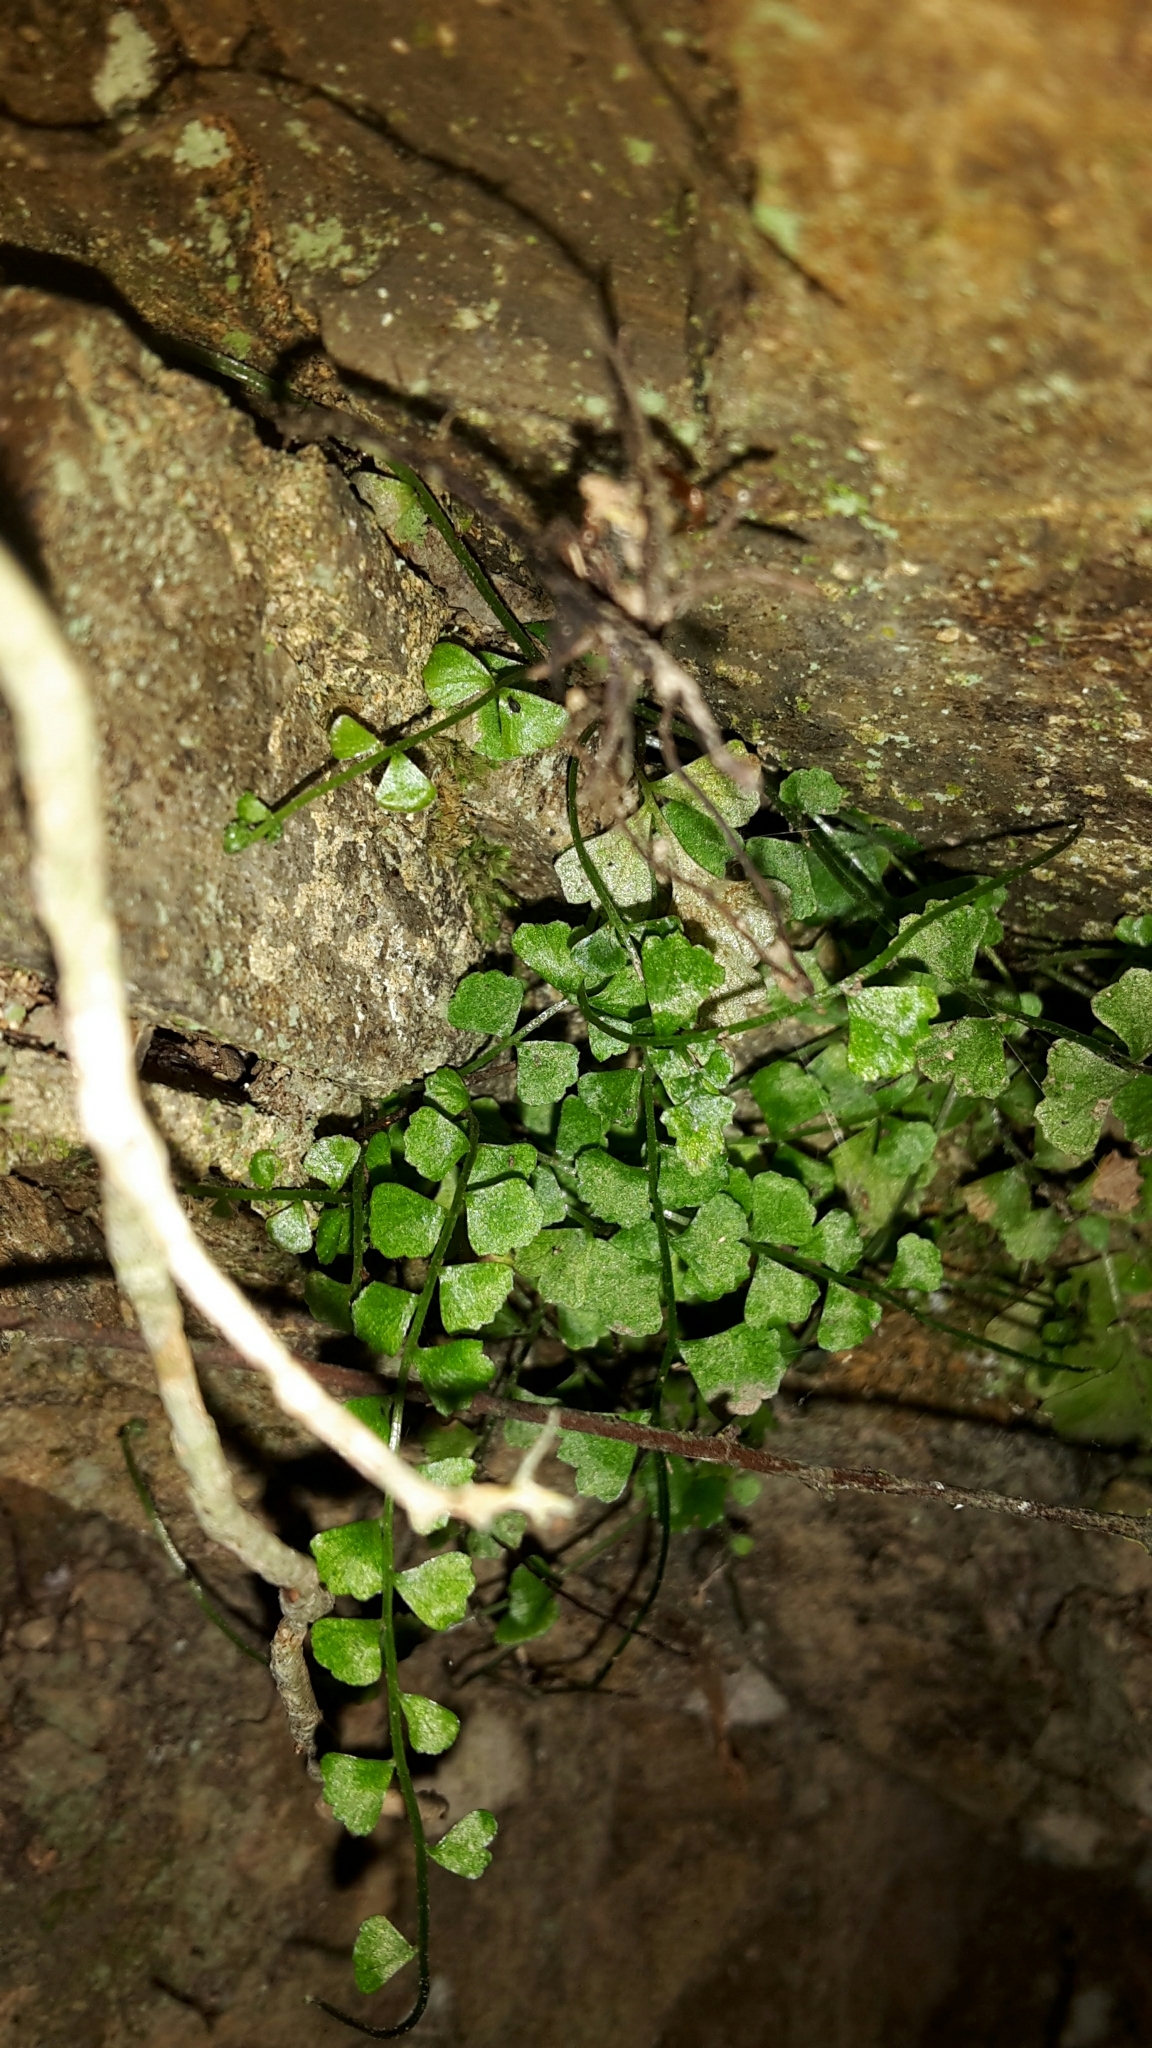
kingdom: Plantae
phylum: Tracheophyta
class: Polypodiopsida
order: Polypodiales
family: Aspleniaceae
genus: Asplenium
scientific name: Asplenium flabellifolium
